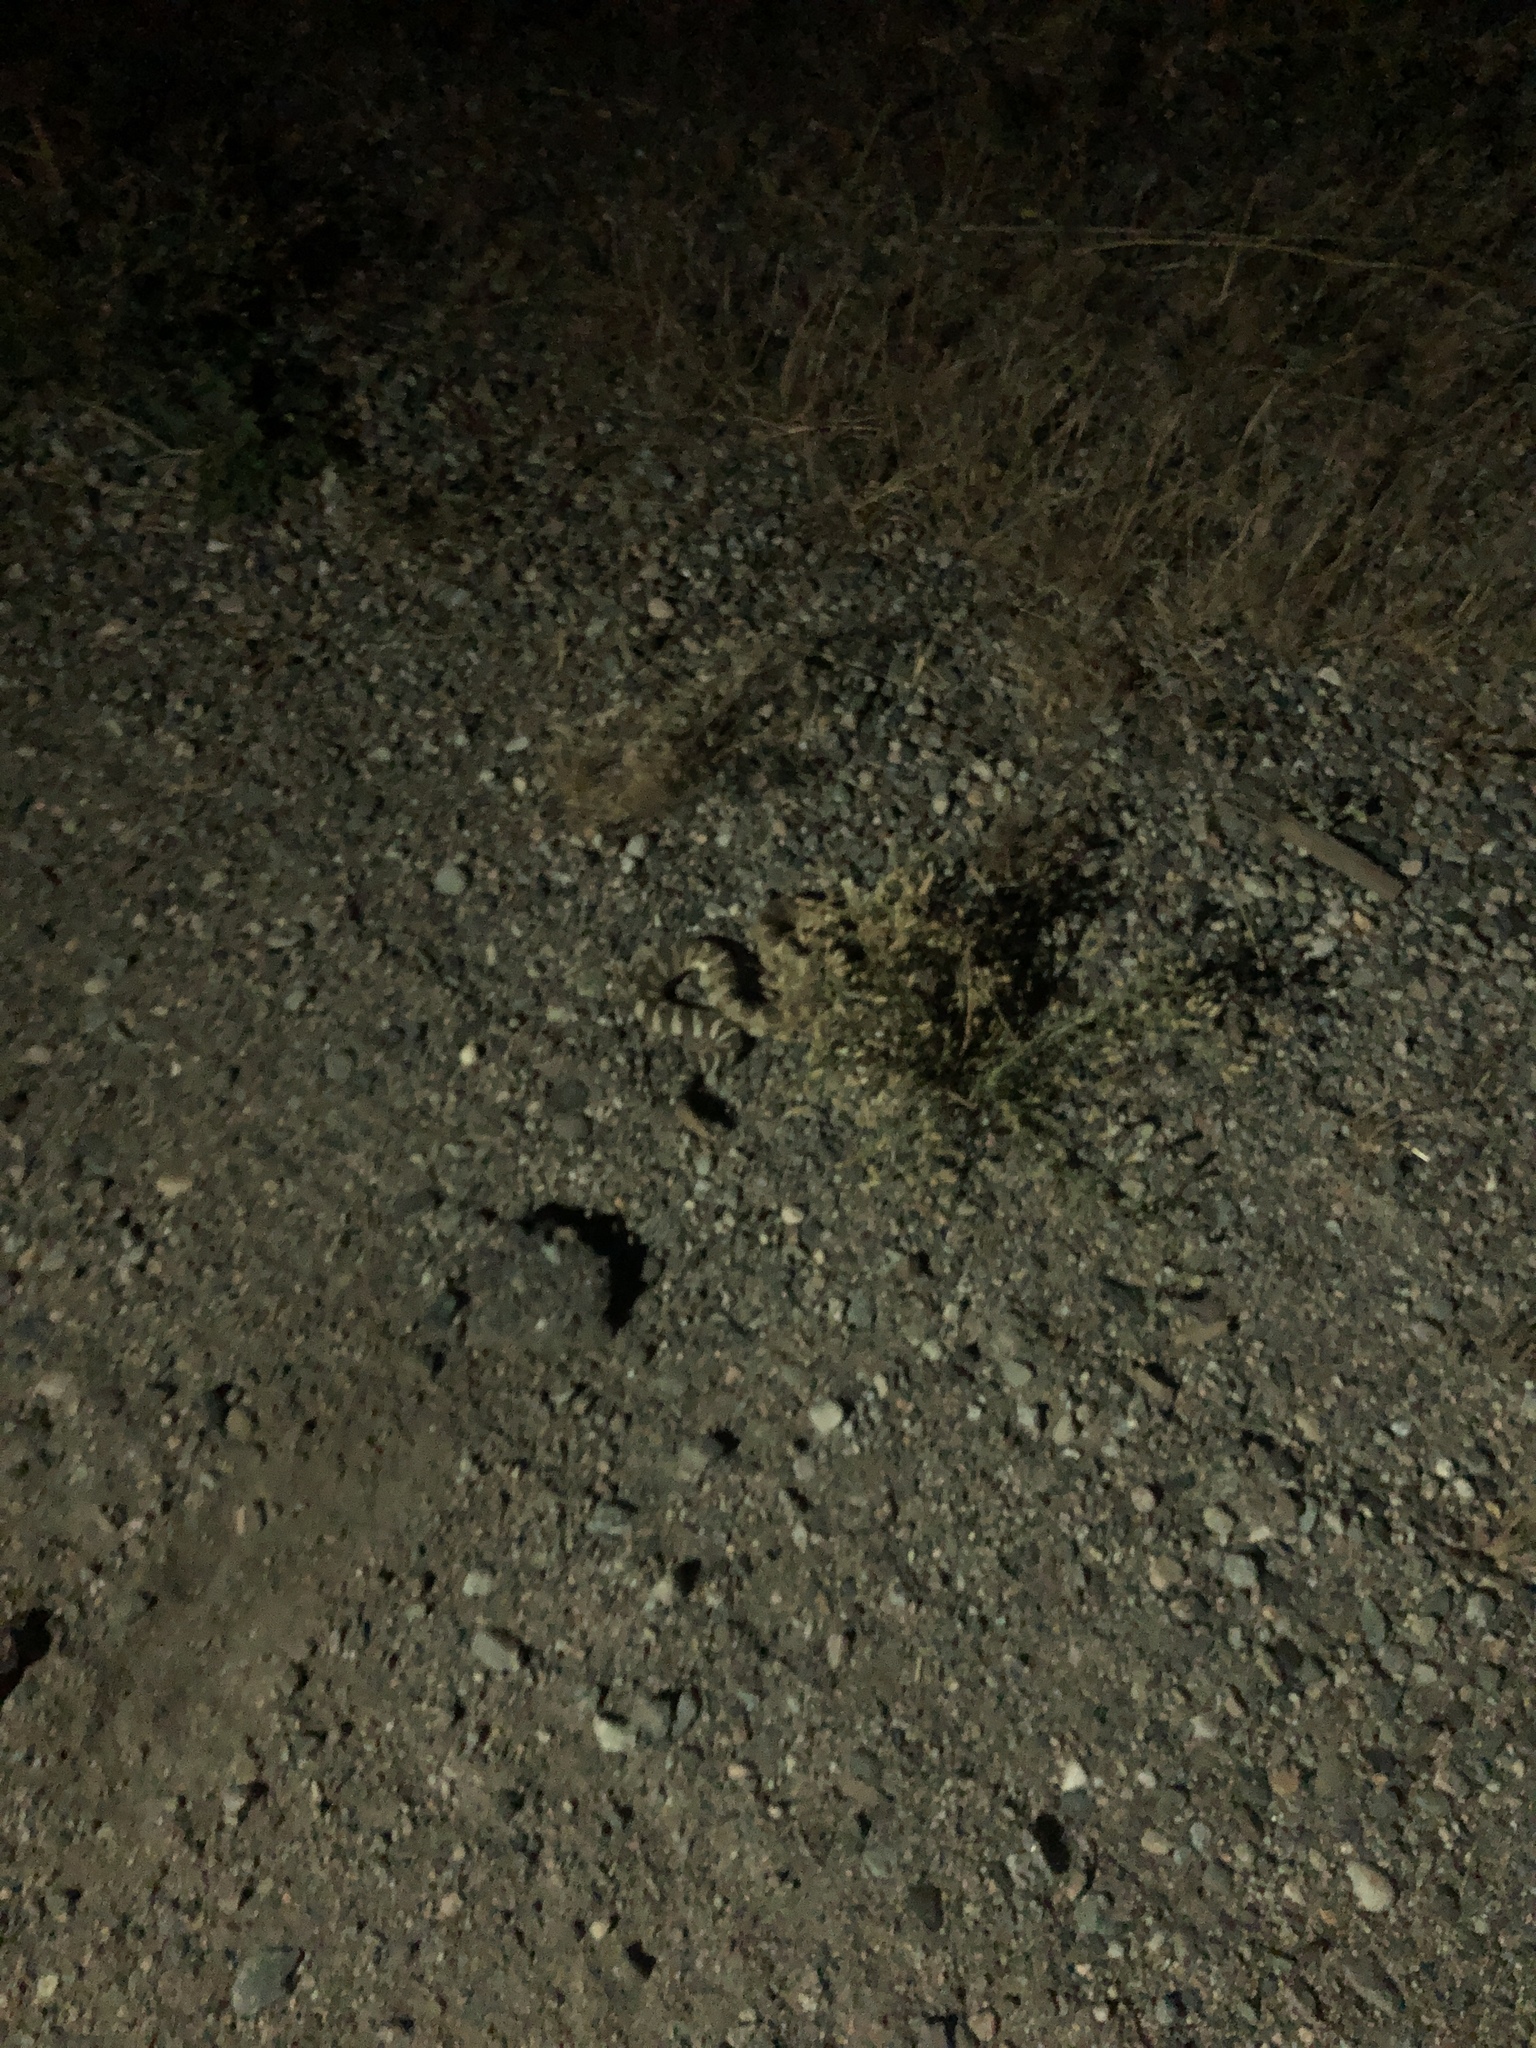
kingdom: Animalia
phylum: Chordata
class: Squamata
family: Viperidae
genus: Crotalus
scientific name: Crotalus oreganus
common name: Abyssus
